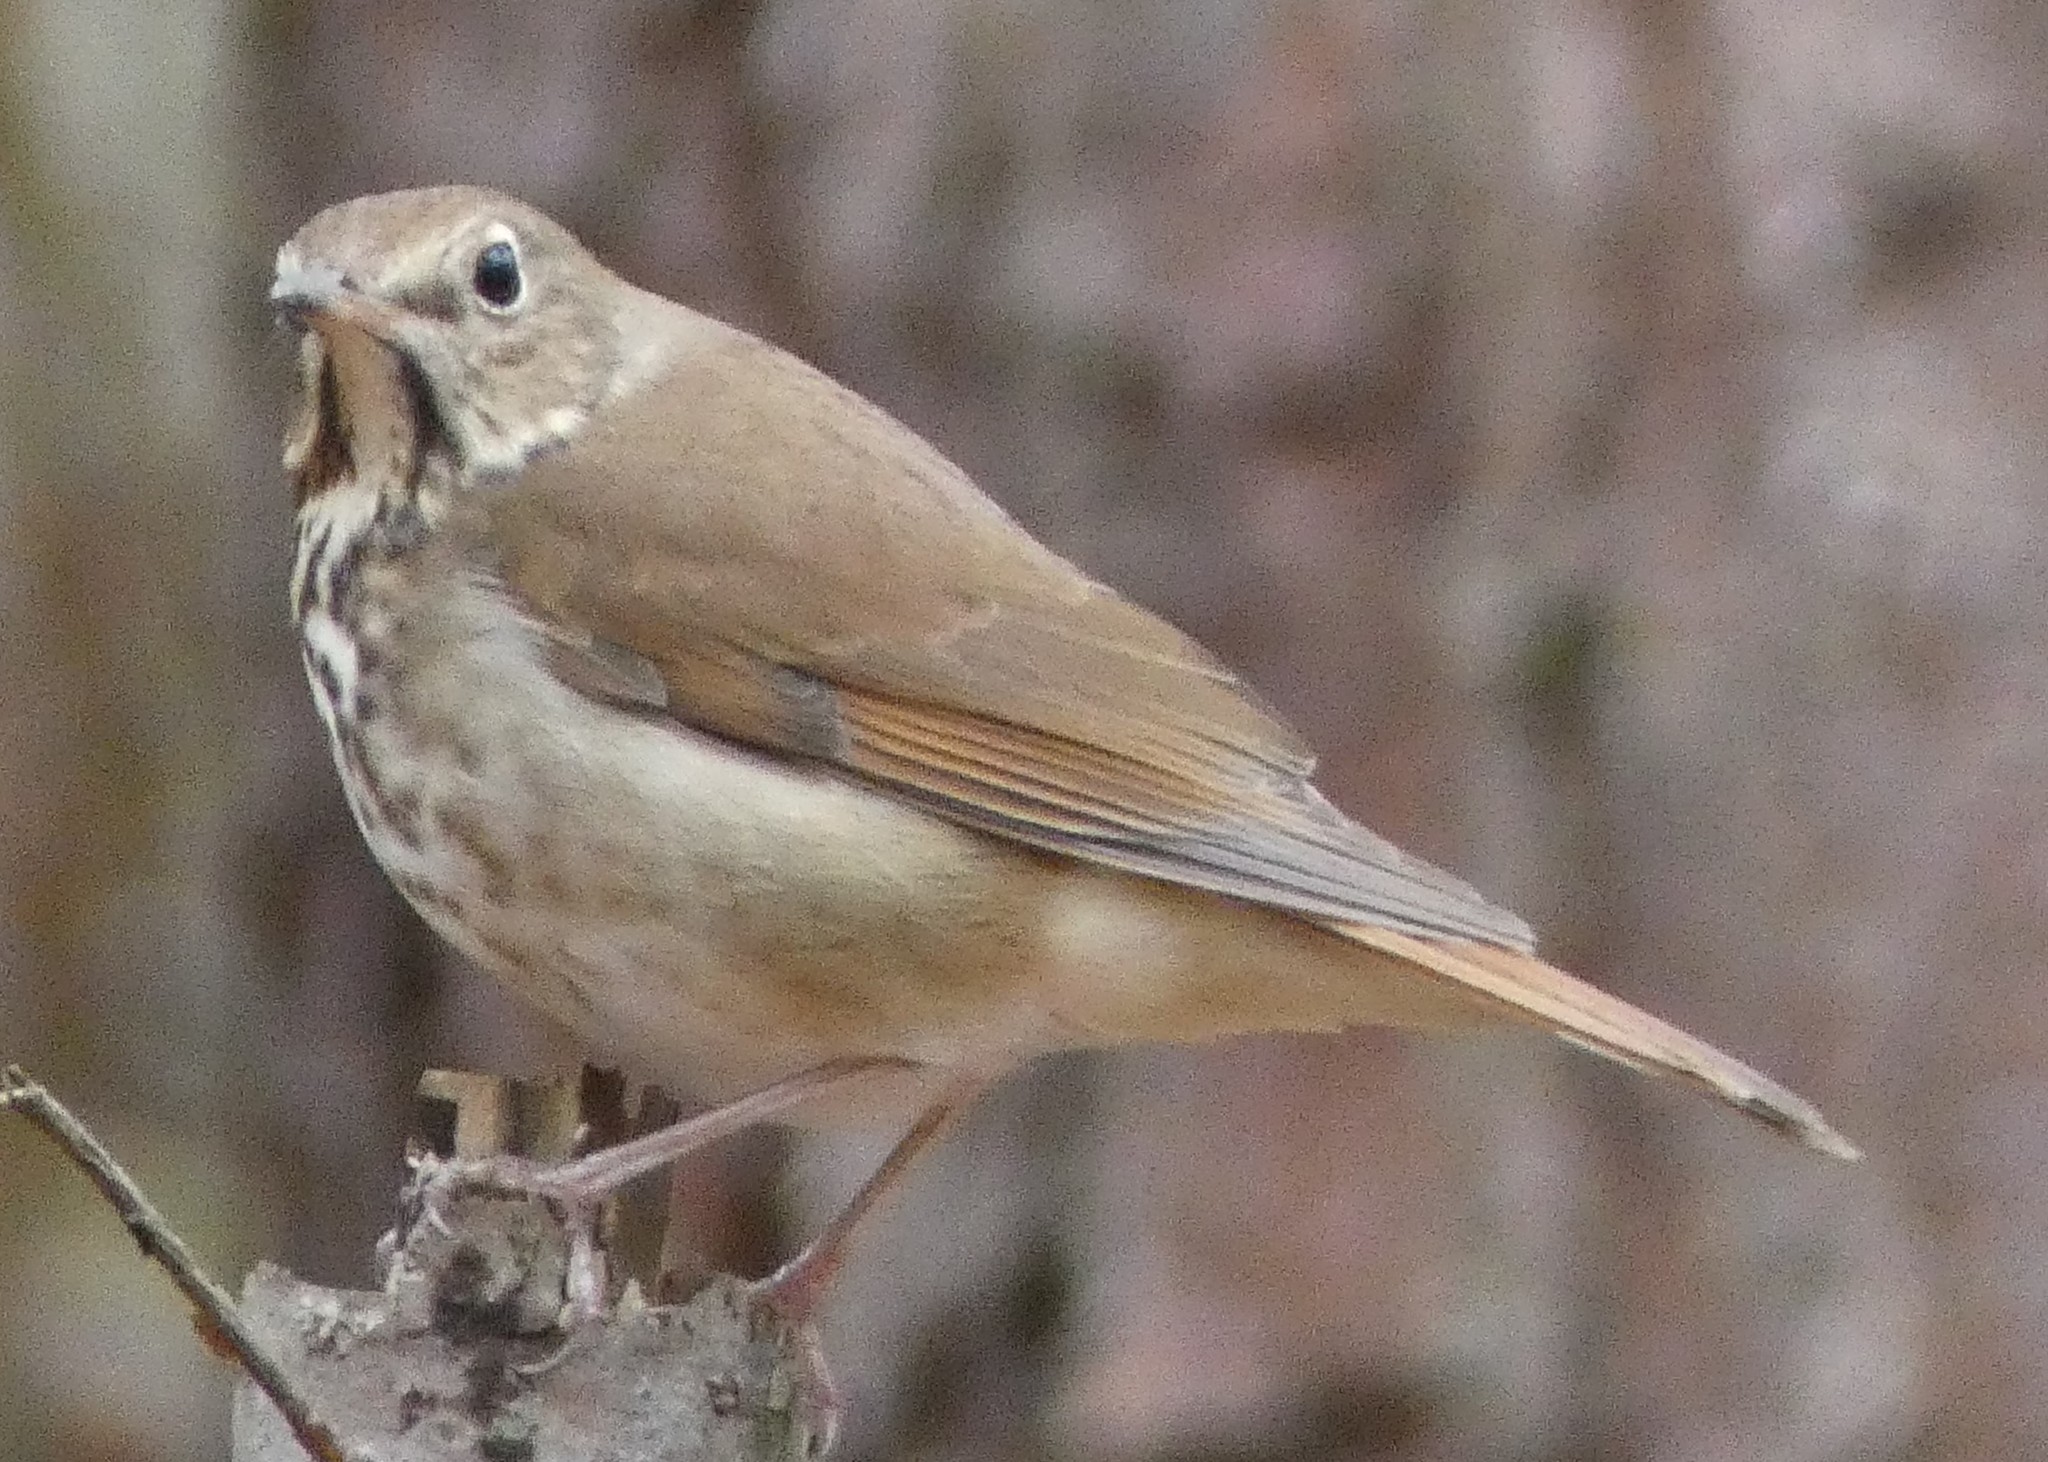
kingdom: Animalia
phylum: Chordata
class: Aves
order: Passeriformes
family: Turdidae
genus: Catharus
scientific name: Catharus guttatus
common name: Hermit thrush
